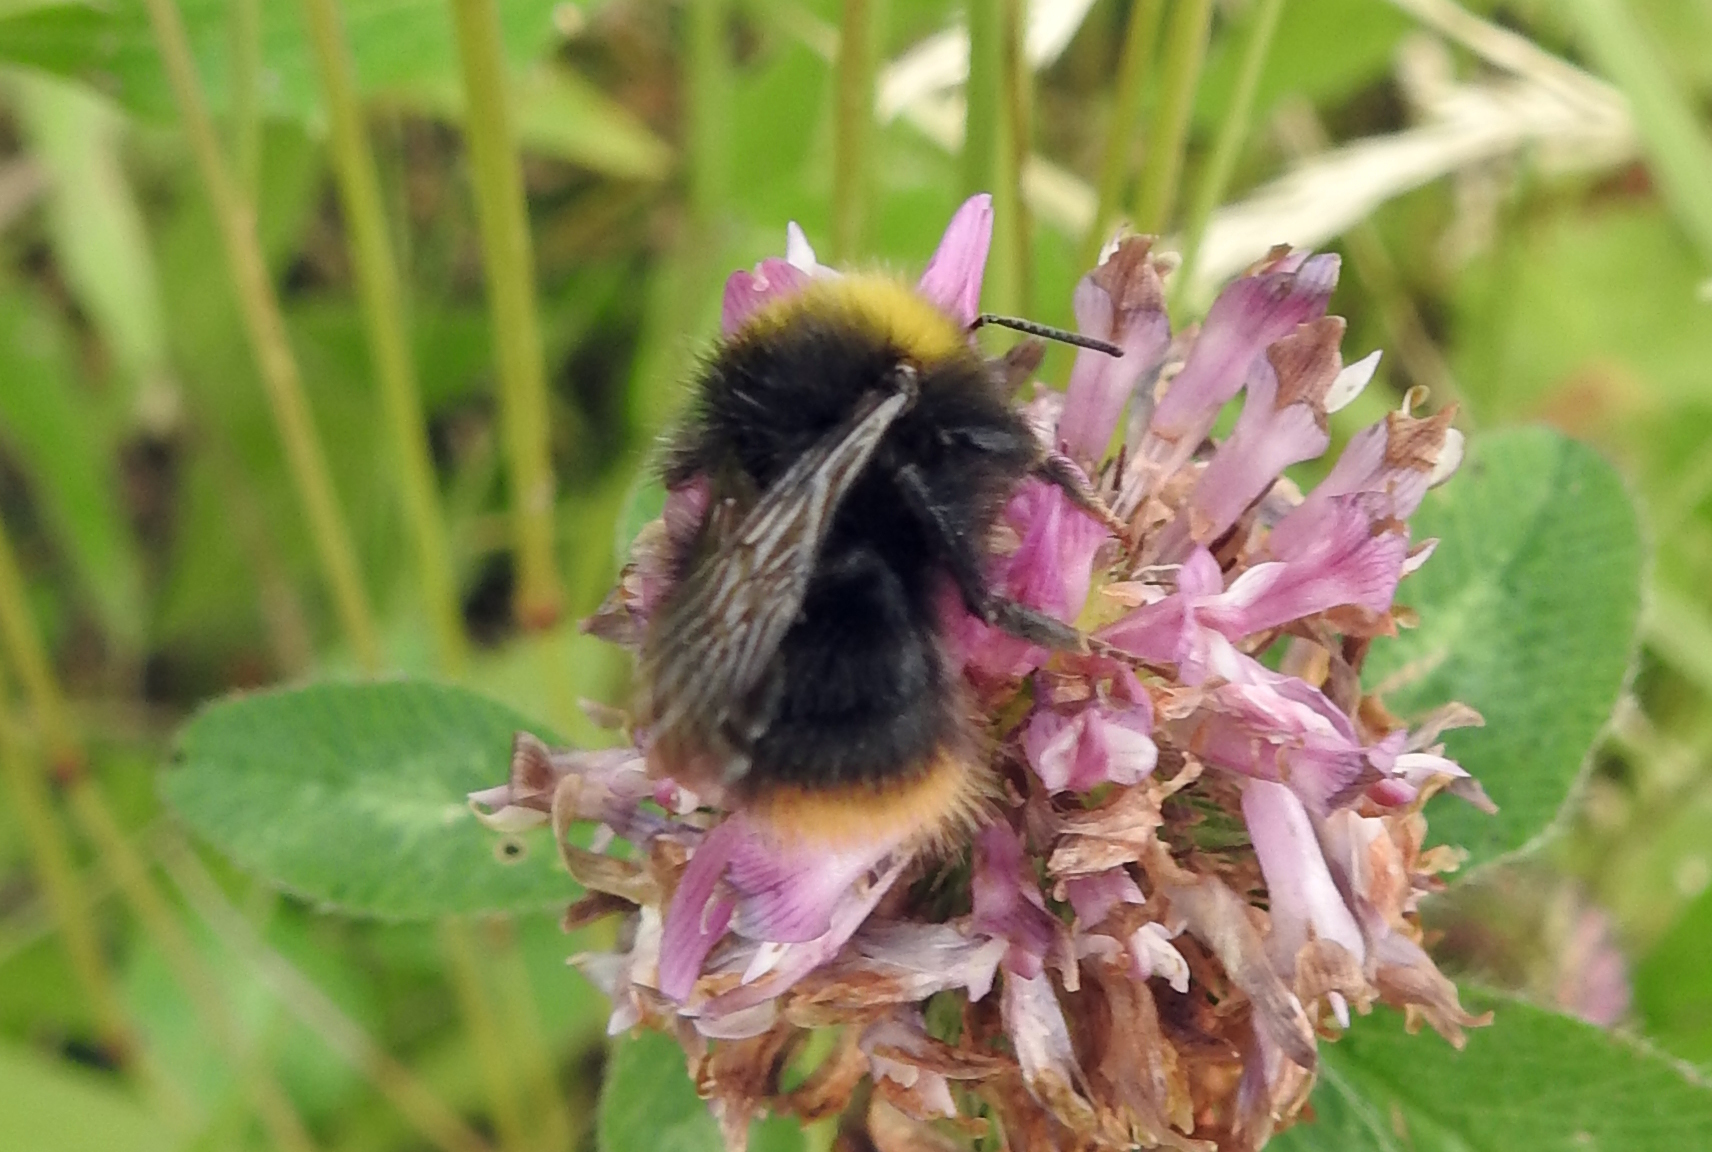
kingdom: Animalia
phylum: Arthropoda
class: Insecta
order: Hymenoptera
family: Apidae
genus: Bombus
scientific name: Bombus pratorum
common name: Early humble-bee
